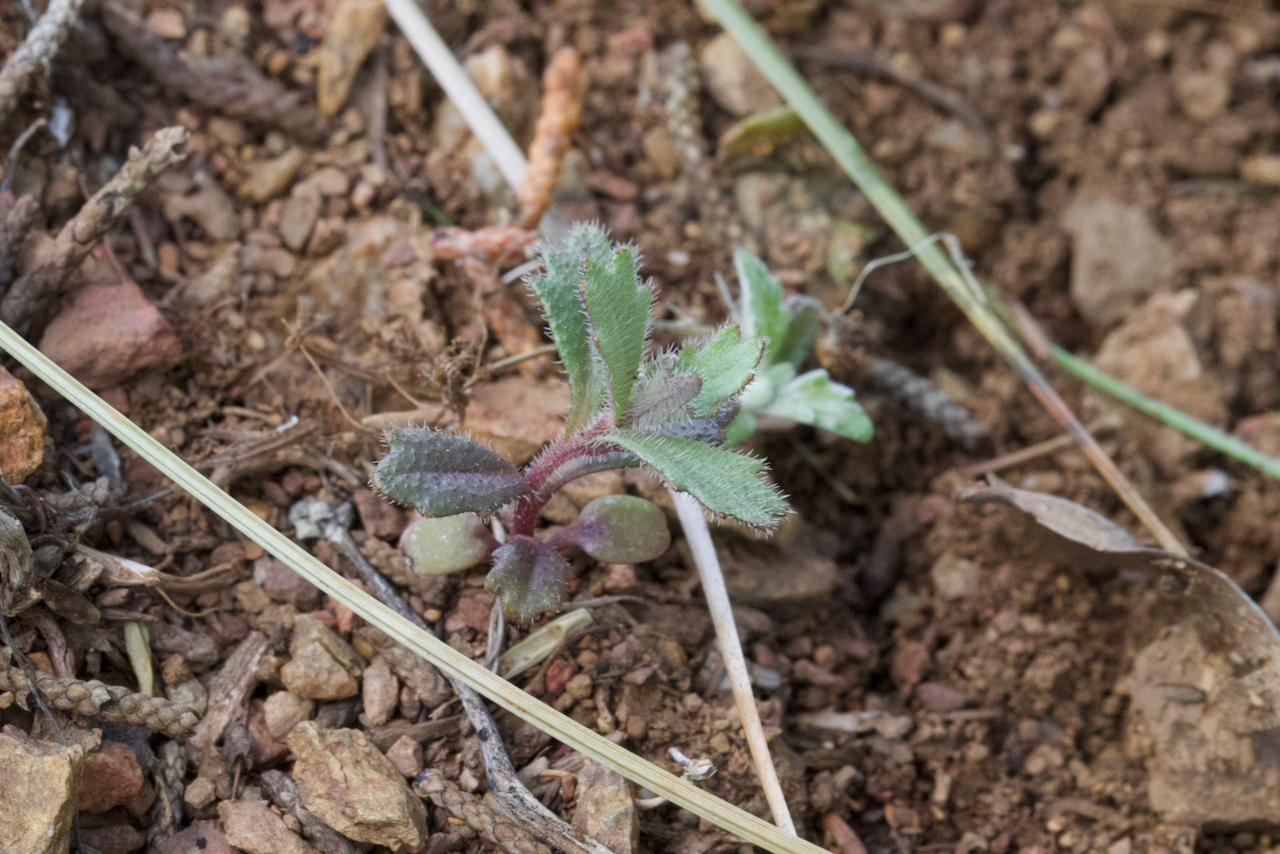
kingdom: Plantae
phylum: Tracheophyta
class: Magnoliopsida
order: Brassicales
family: Brassicaceae
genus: Streptanthus
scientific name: Streptanthus hispidus
